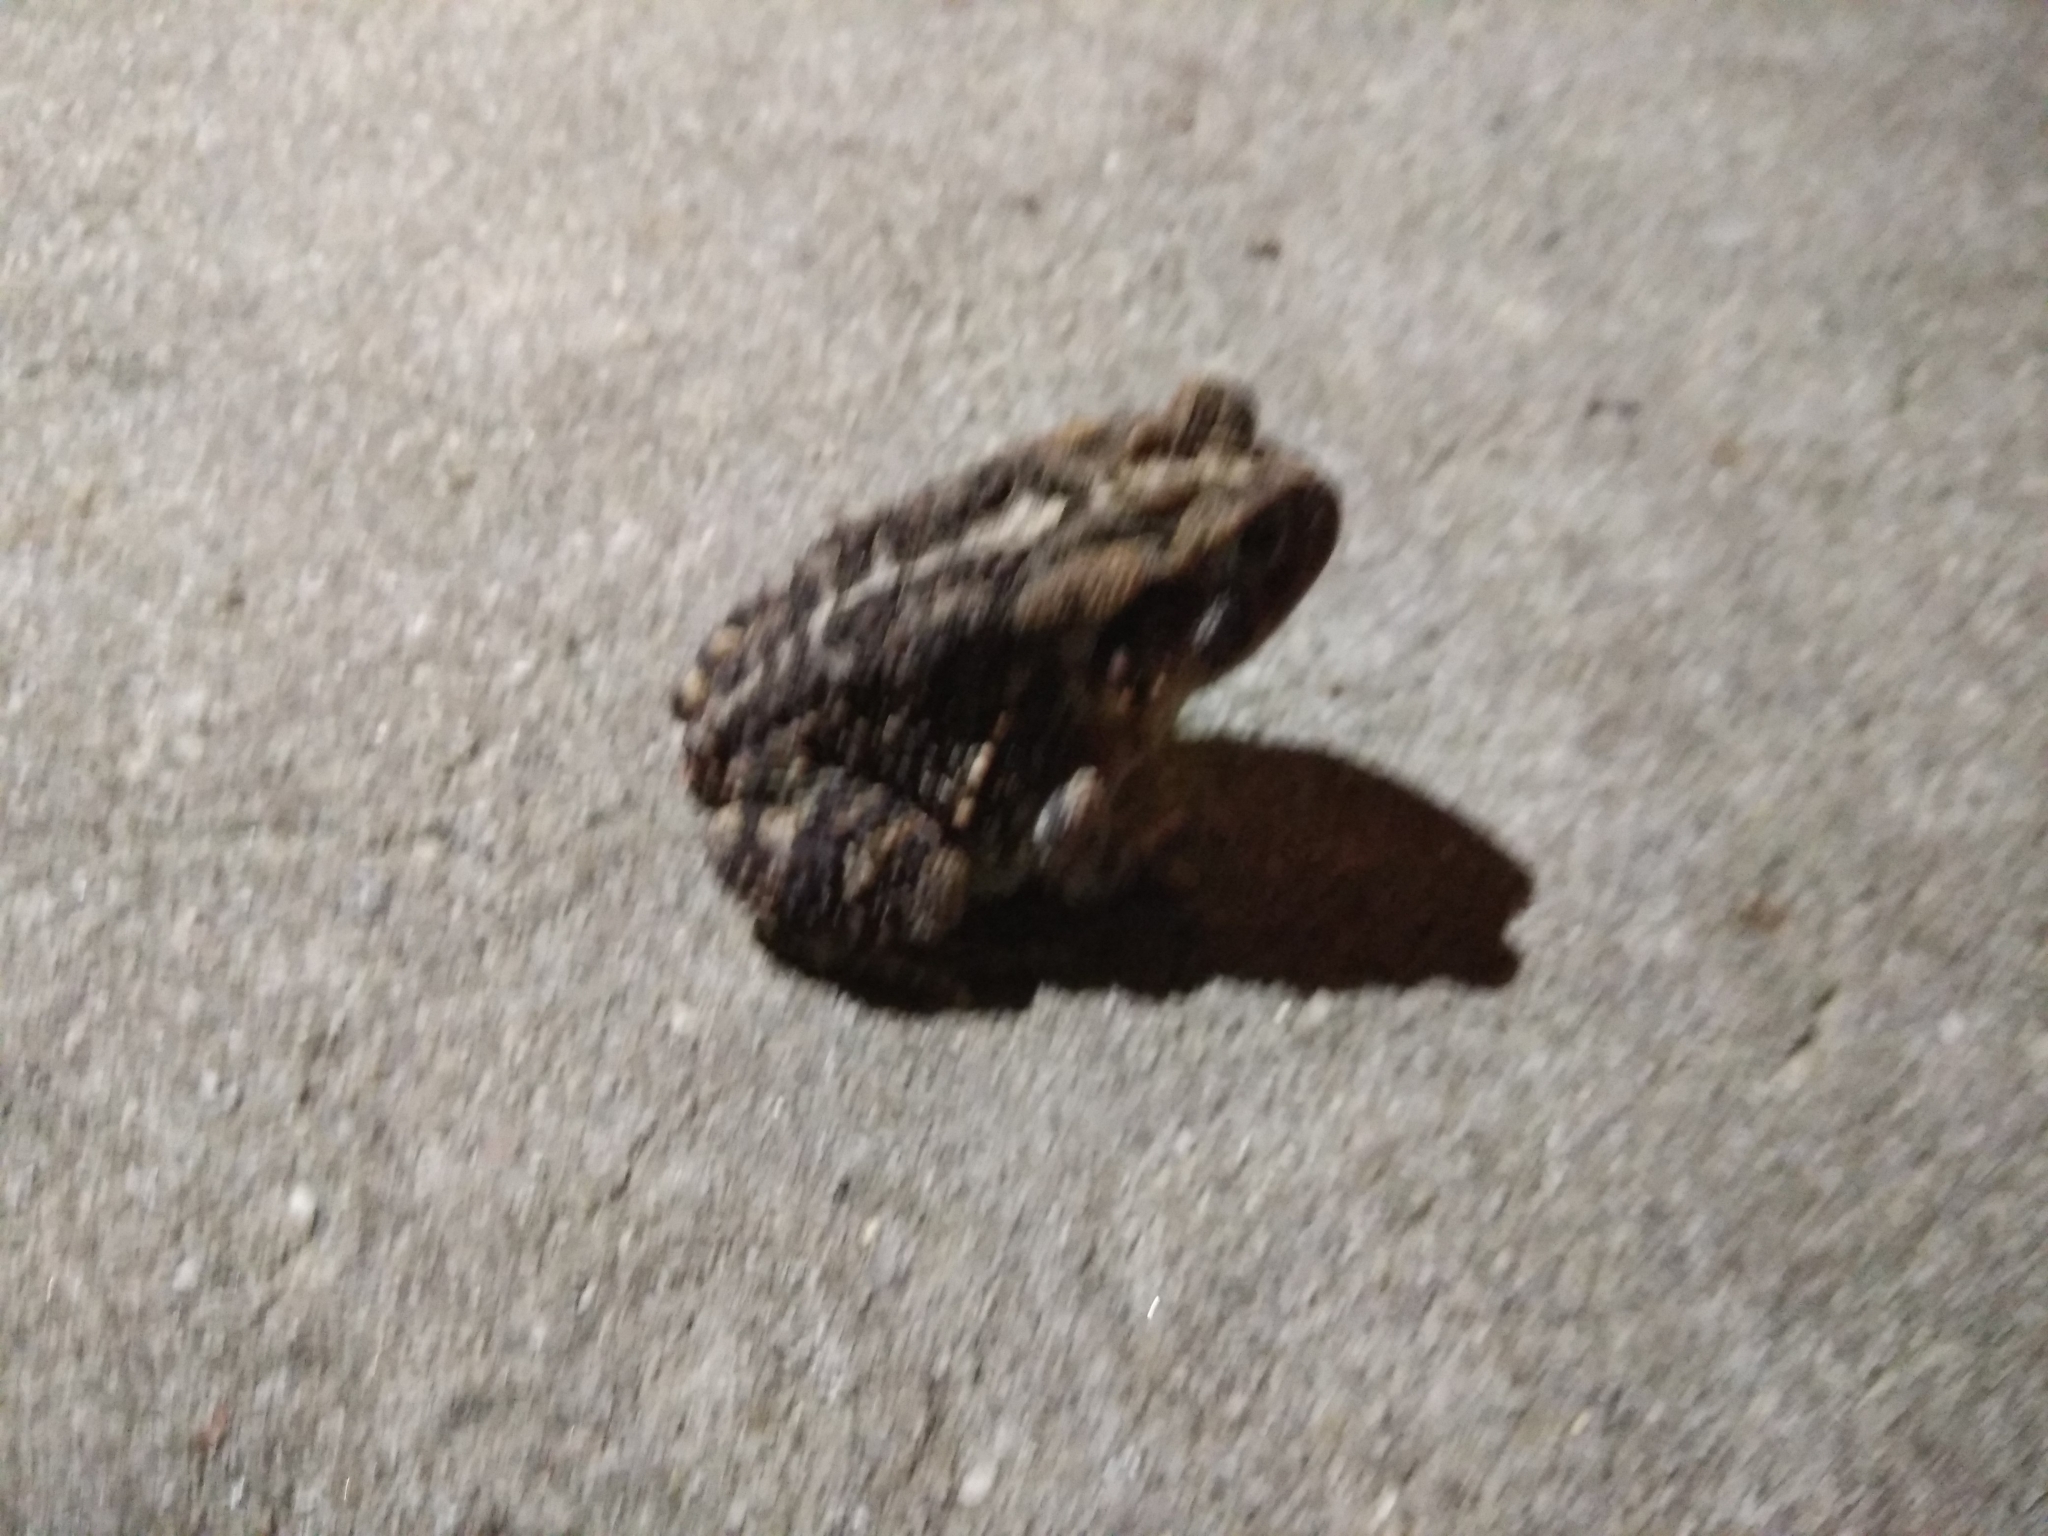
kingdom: Animalia
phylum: Chordata
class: Amphibia
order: Anura
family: Bufonidae
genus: Anaxyrus
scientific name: Anaxyrus terrestris
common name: Southern toad
